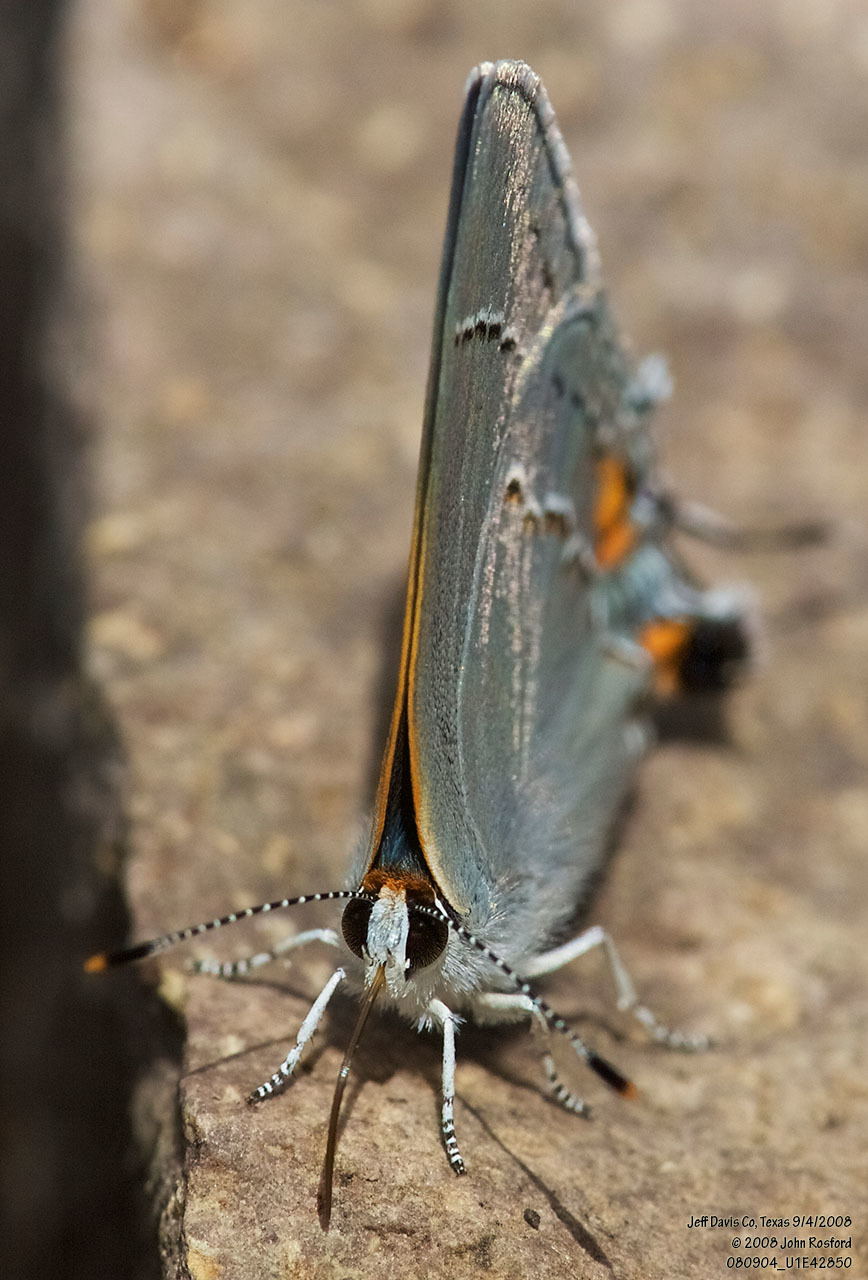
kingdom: Animalia
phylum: Arthropoda
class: Insecta
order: Lepidoptera
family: Lycaenidae
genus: Strymon
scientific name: Strymon melinus
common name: Gray hairstreak
